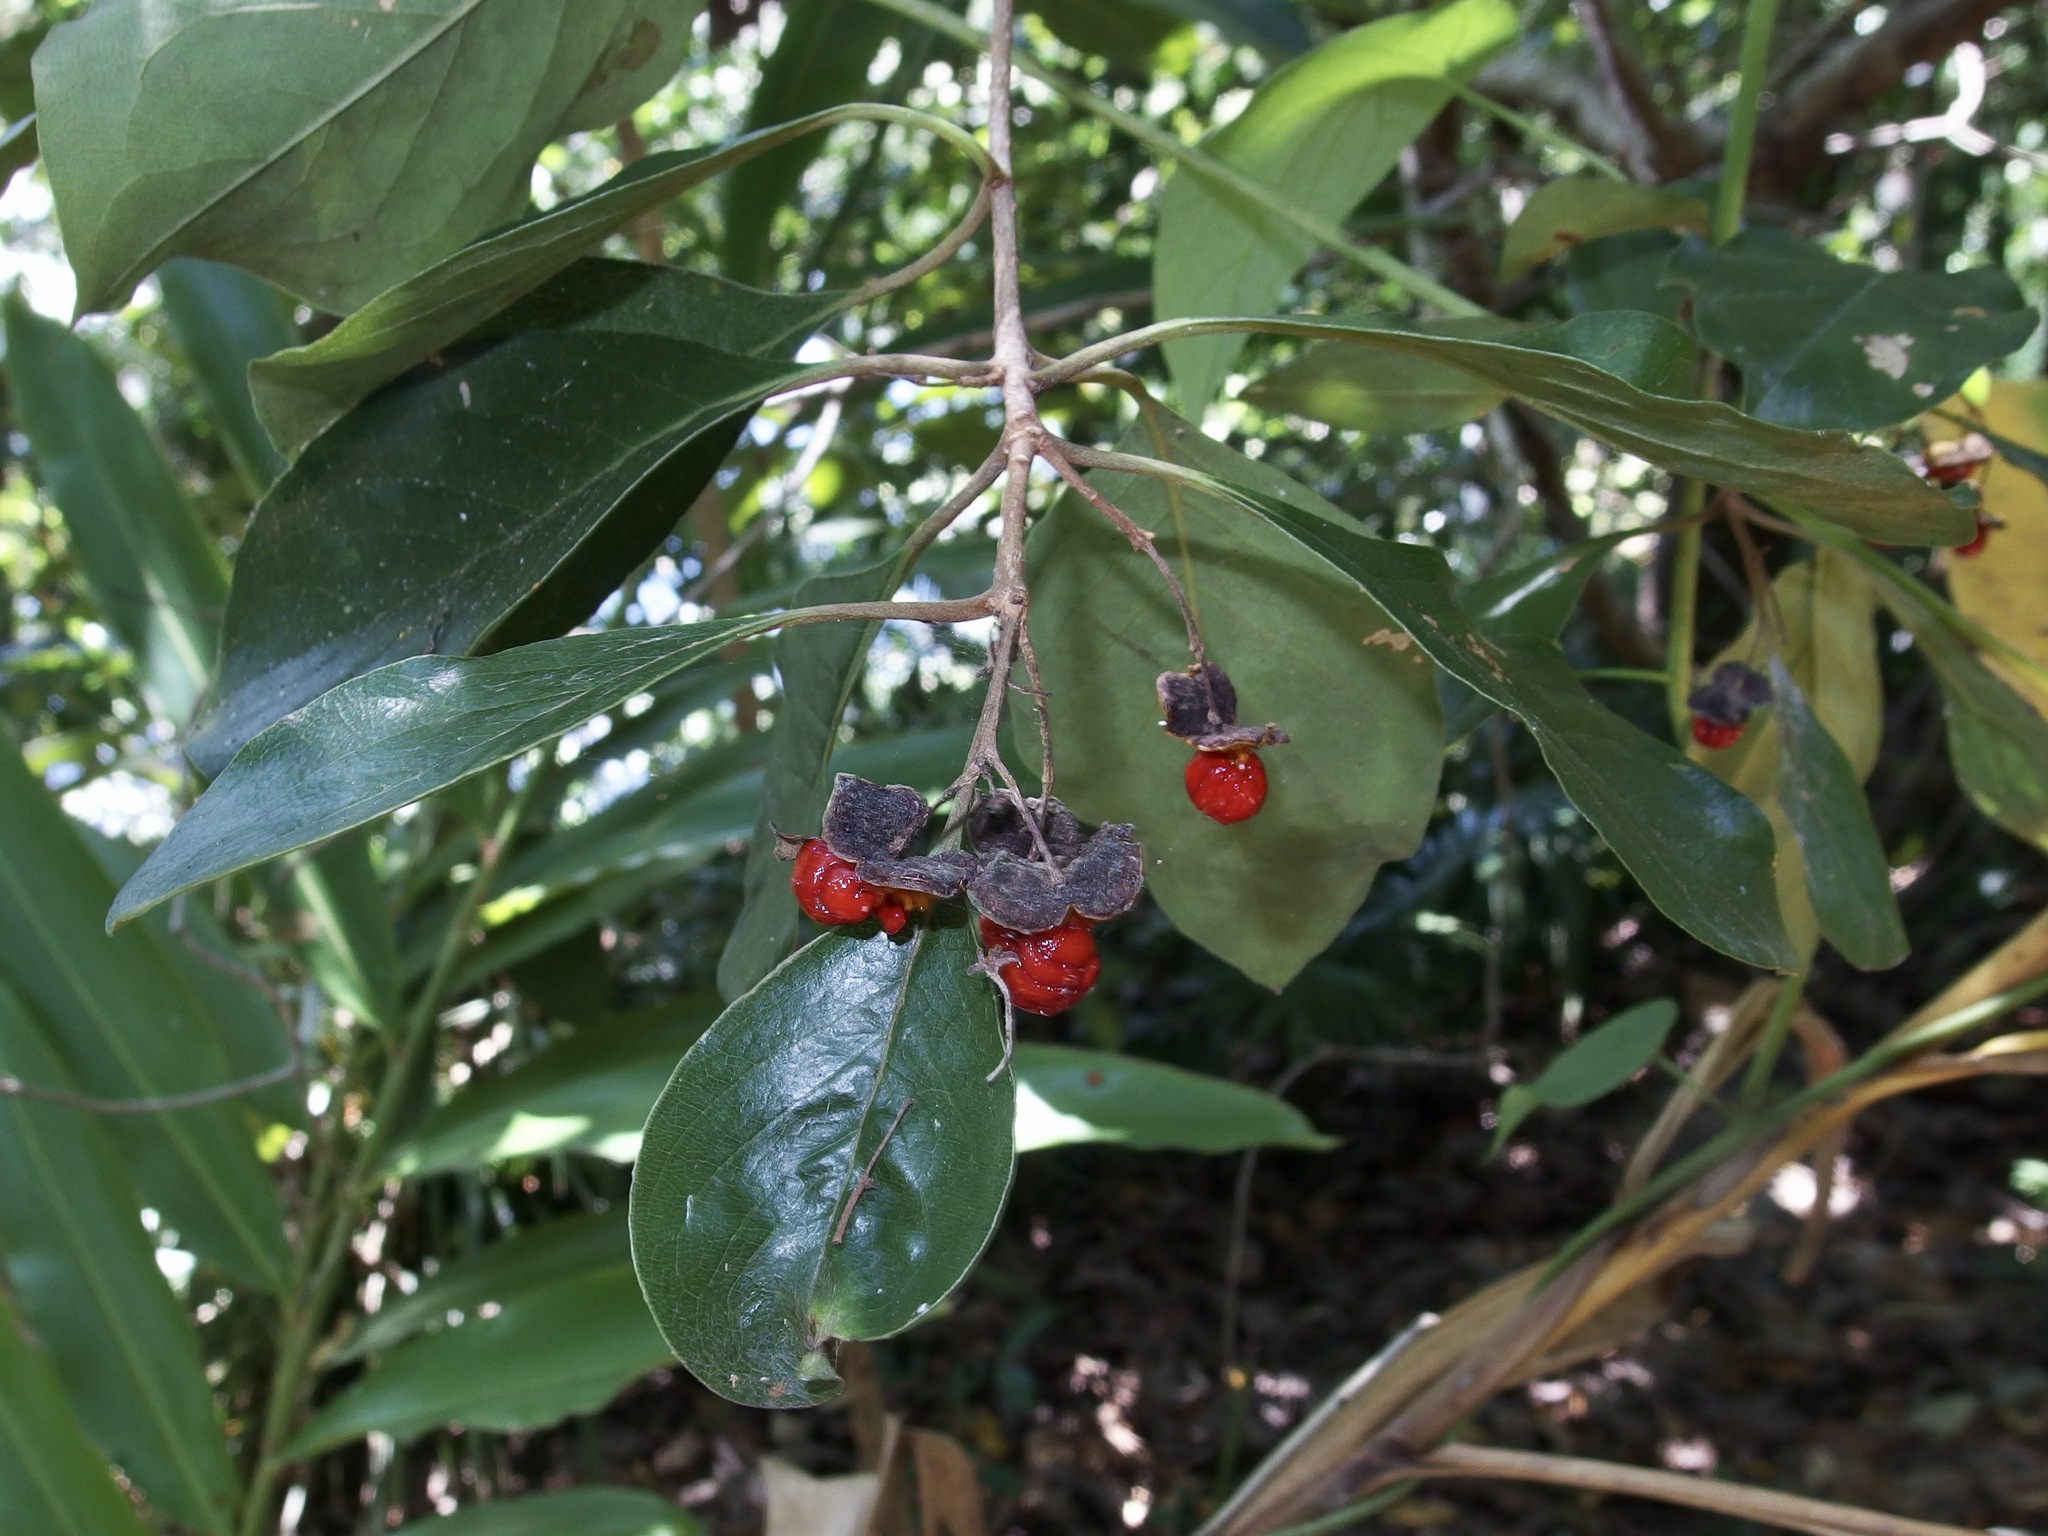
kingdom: Plantae
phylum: Tracheophyta
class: Magnoliopsida
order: Apiales
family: Pittosporaceae
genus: Pittosporum
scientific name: Pittosporum ferrugineum
